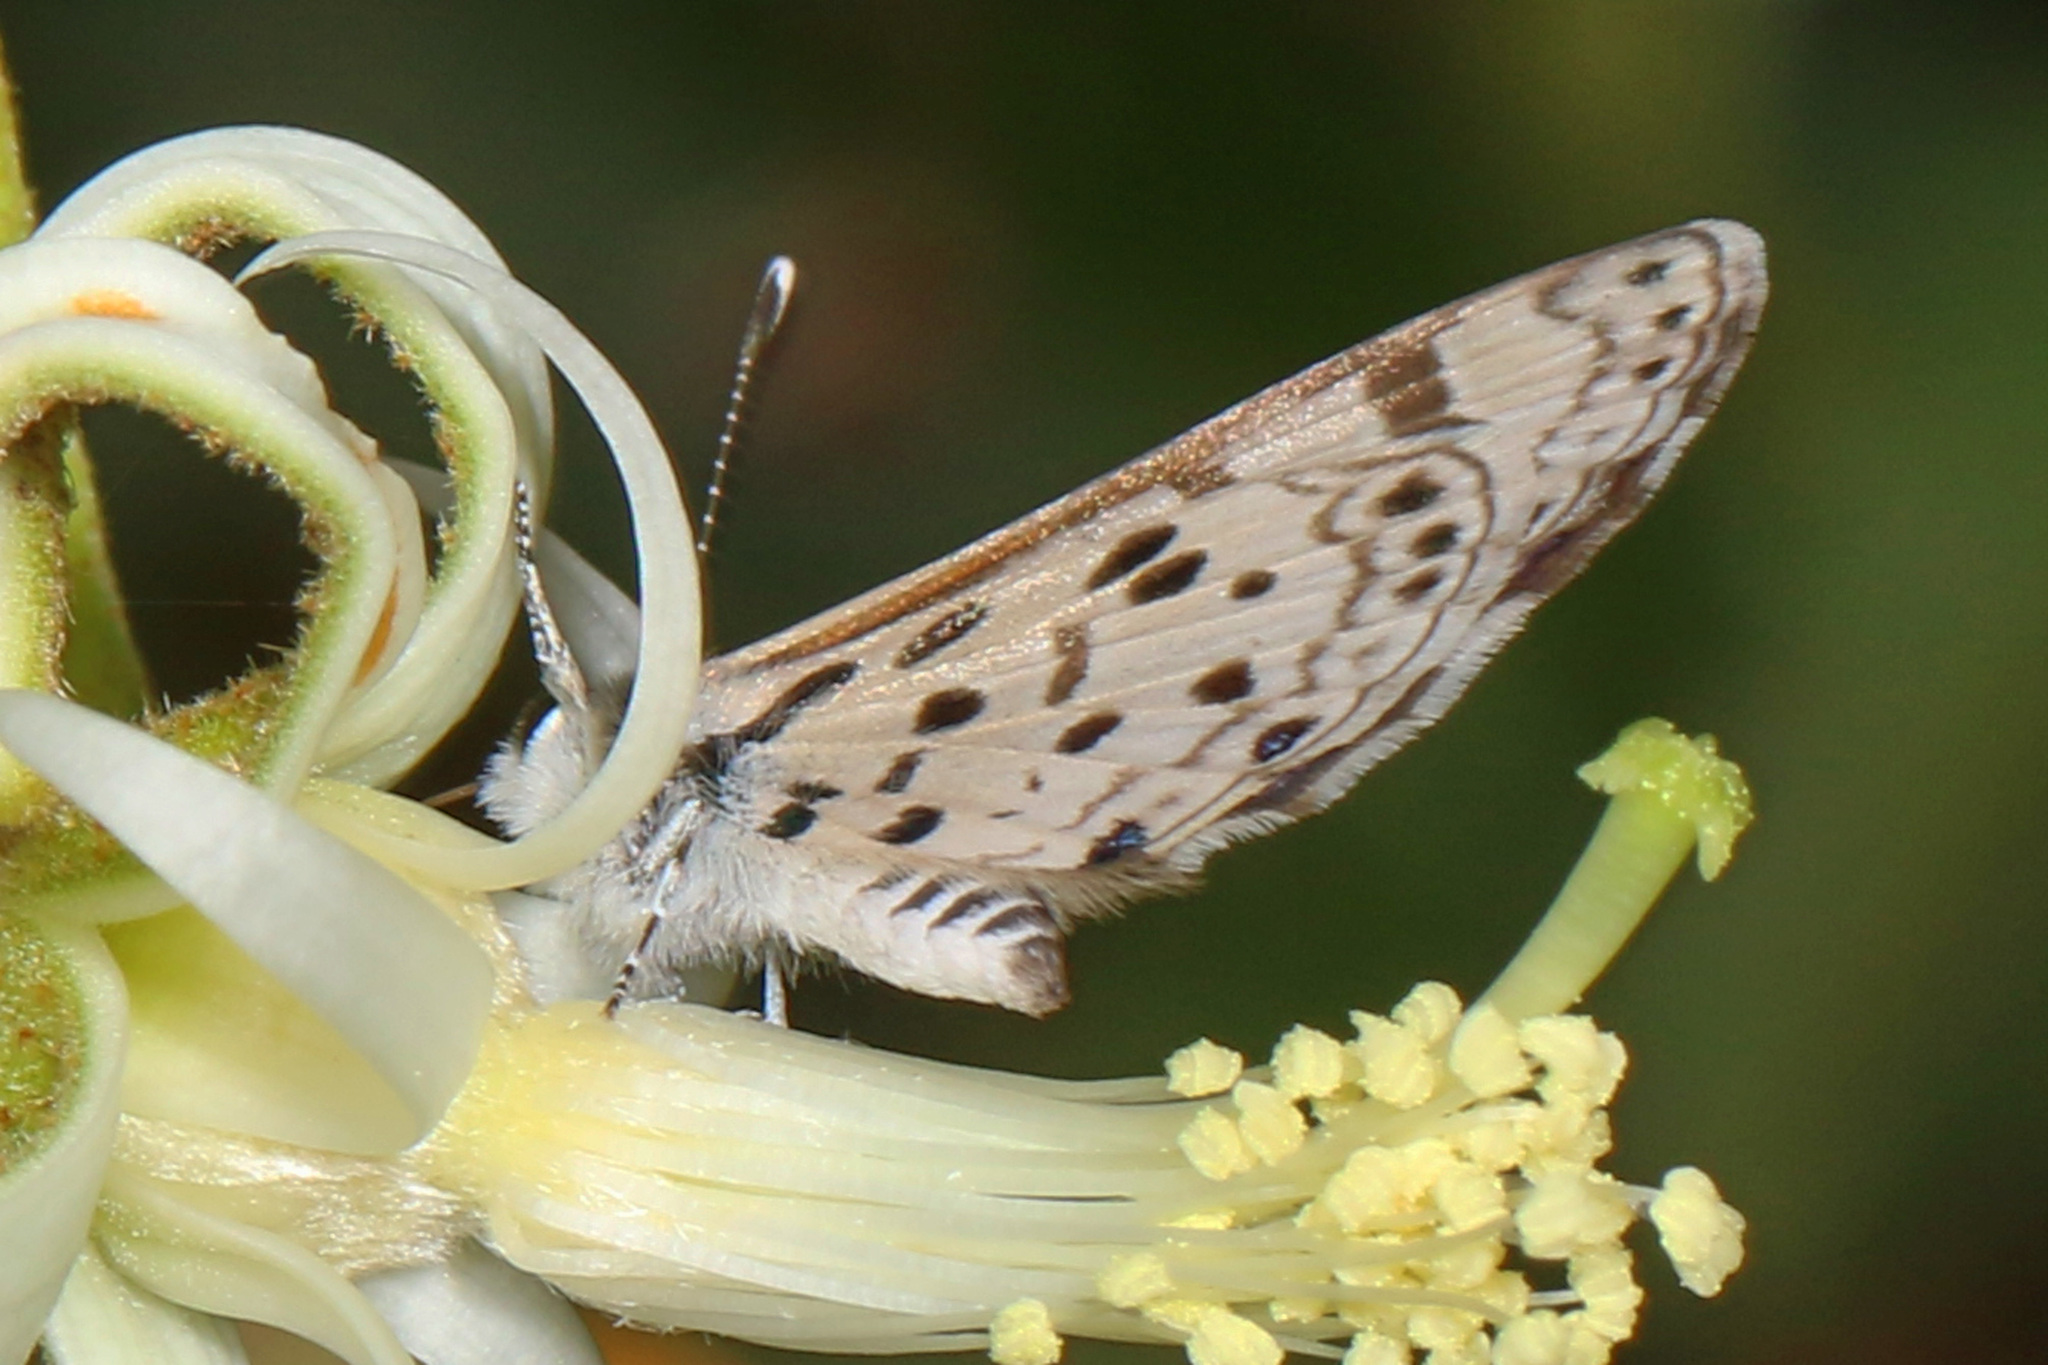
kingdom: Animalia
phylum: Arthropoda
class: Insecta
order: Lepidoptera
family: Lycaenidae
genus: Azanus
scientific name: Azanus natalensis
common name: Natal babul blue
